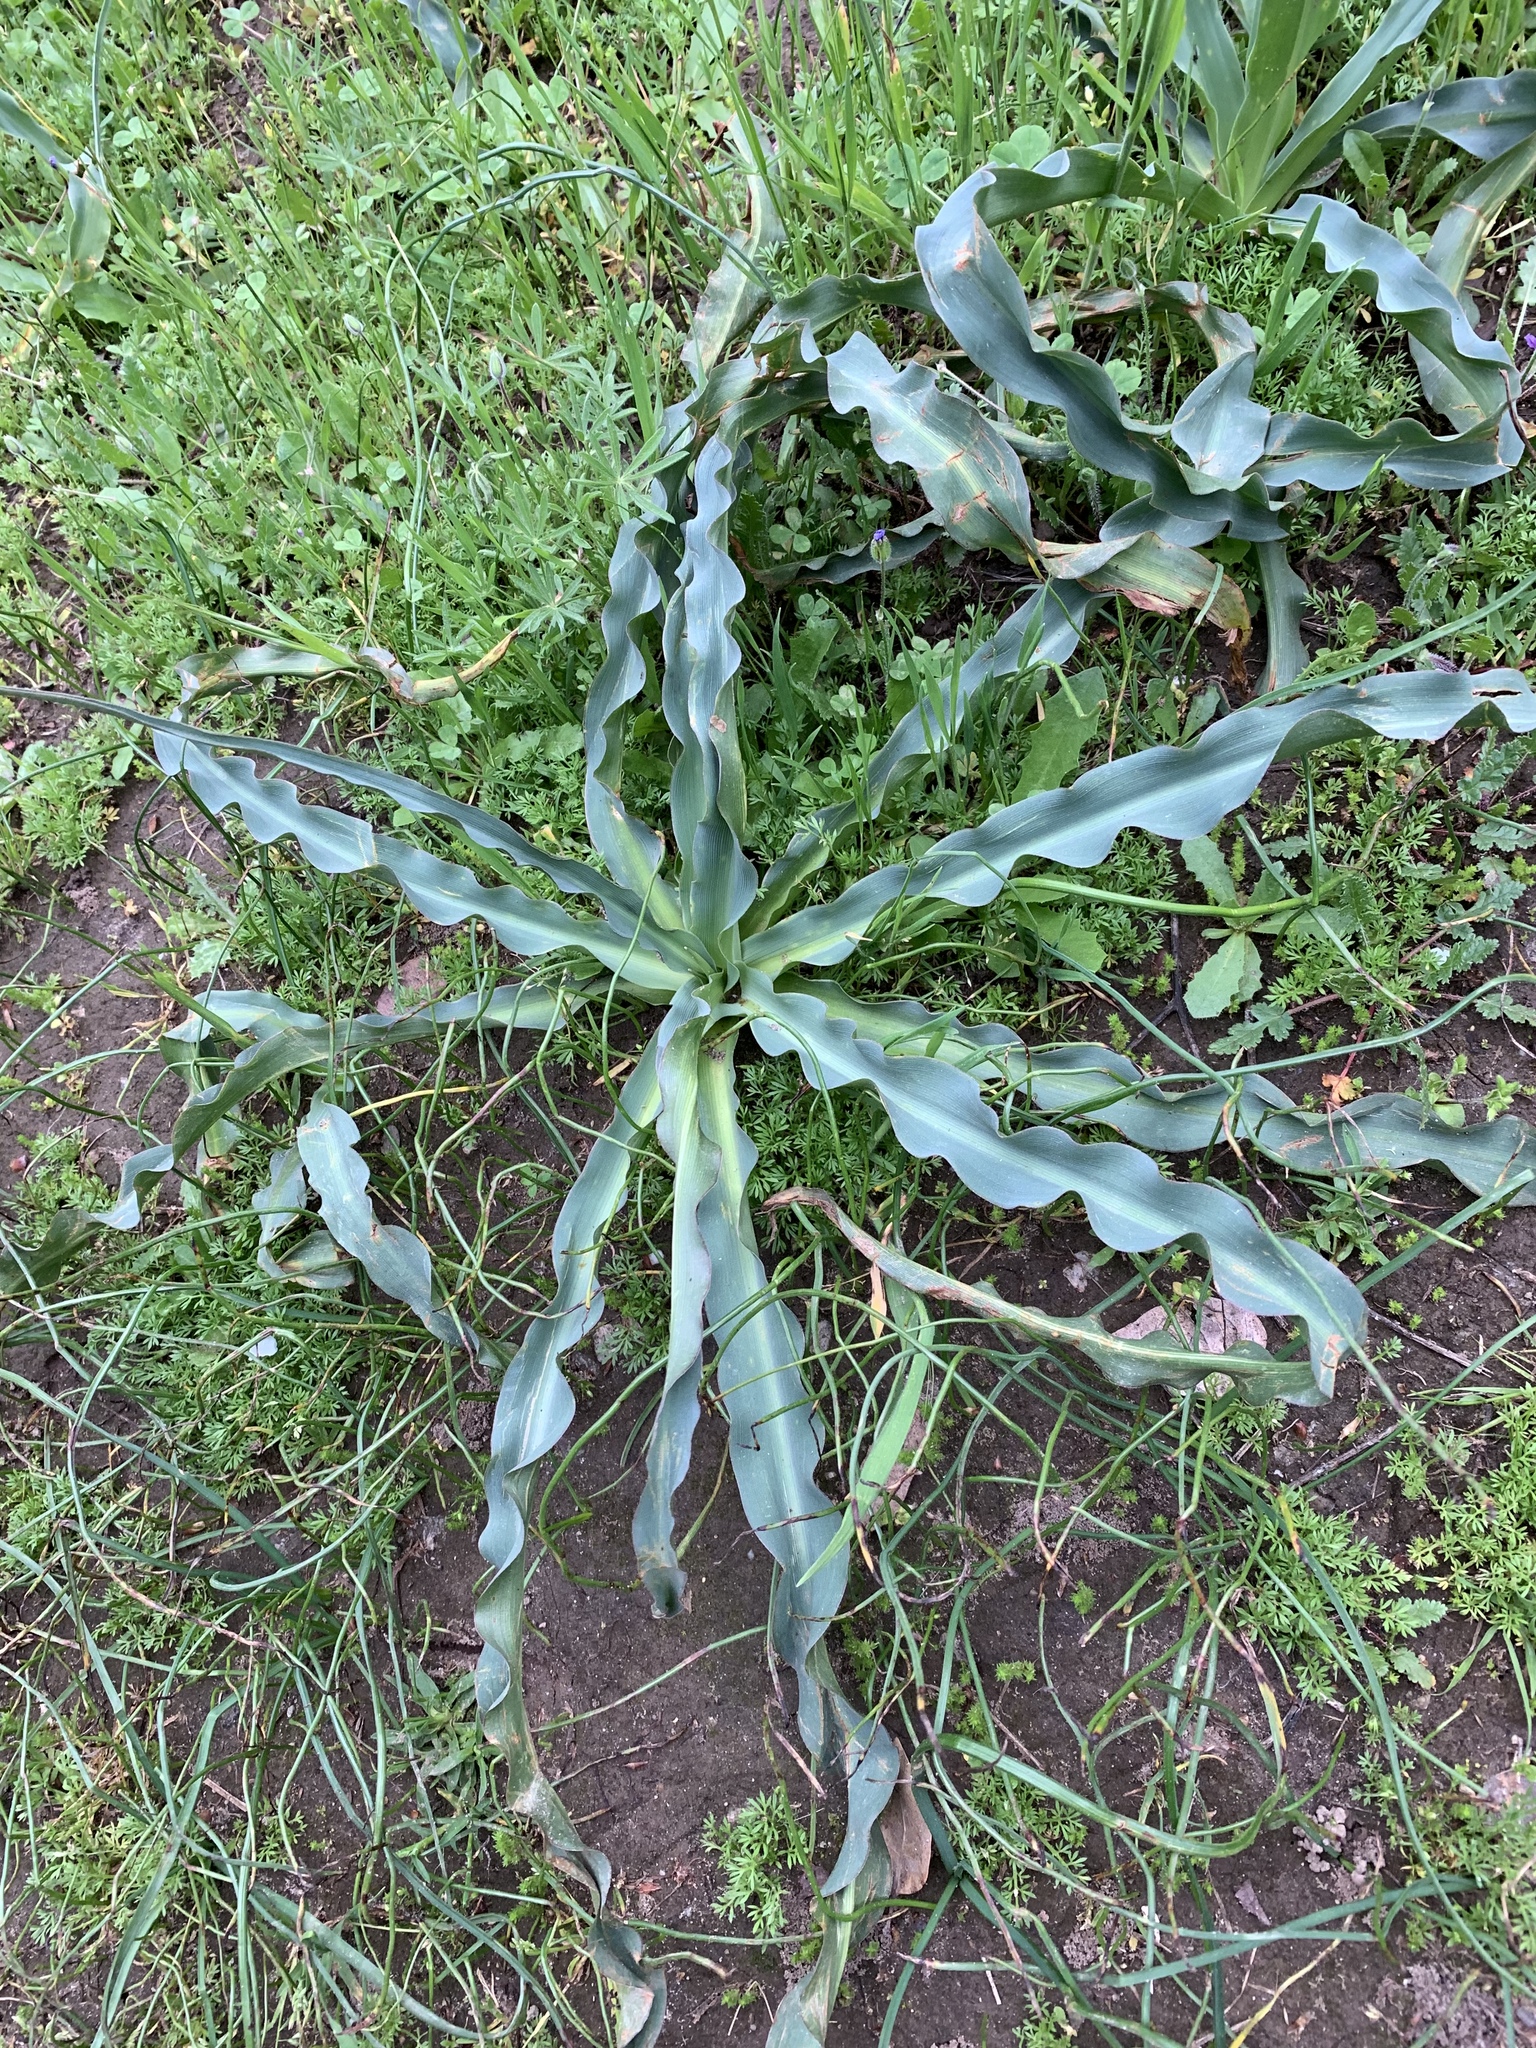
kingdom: Plantae
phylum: Tracheophyta
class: Liliopsida
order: Asparagales
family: Asparagaceae
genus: Chlorogalum
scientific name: Chlorogalum pomeridianum
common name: Amole
